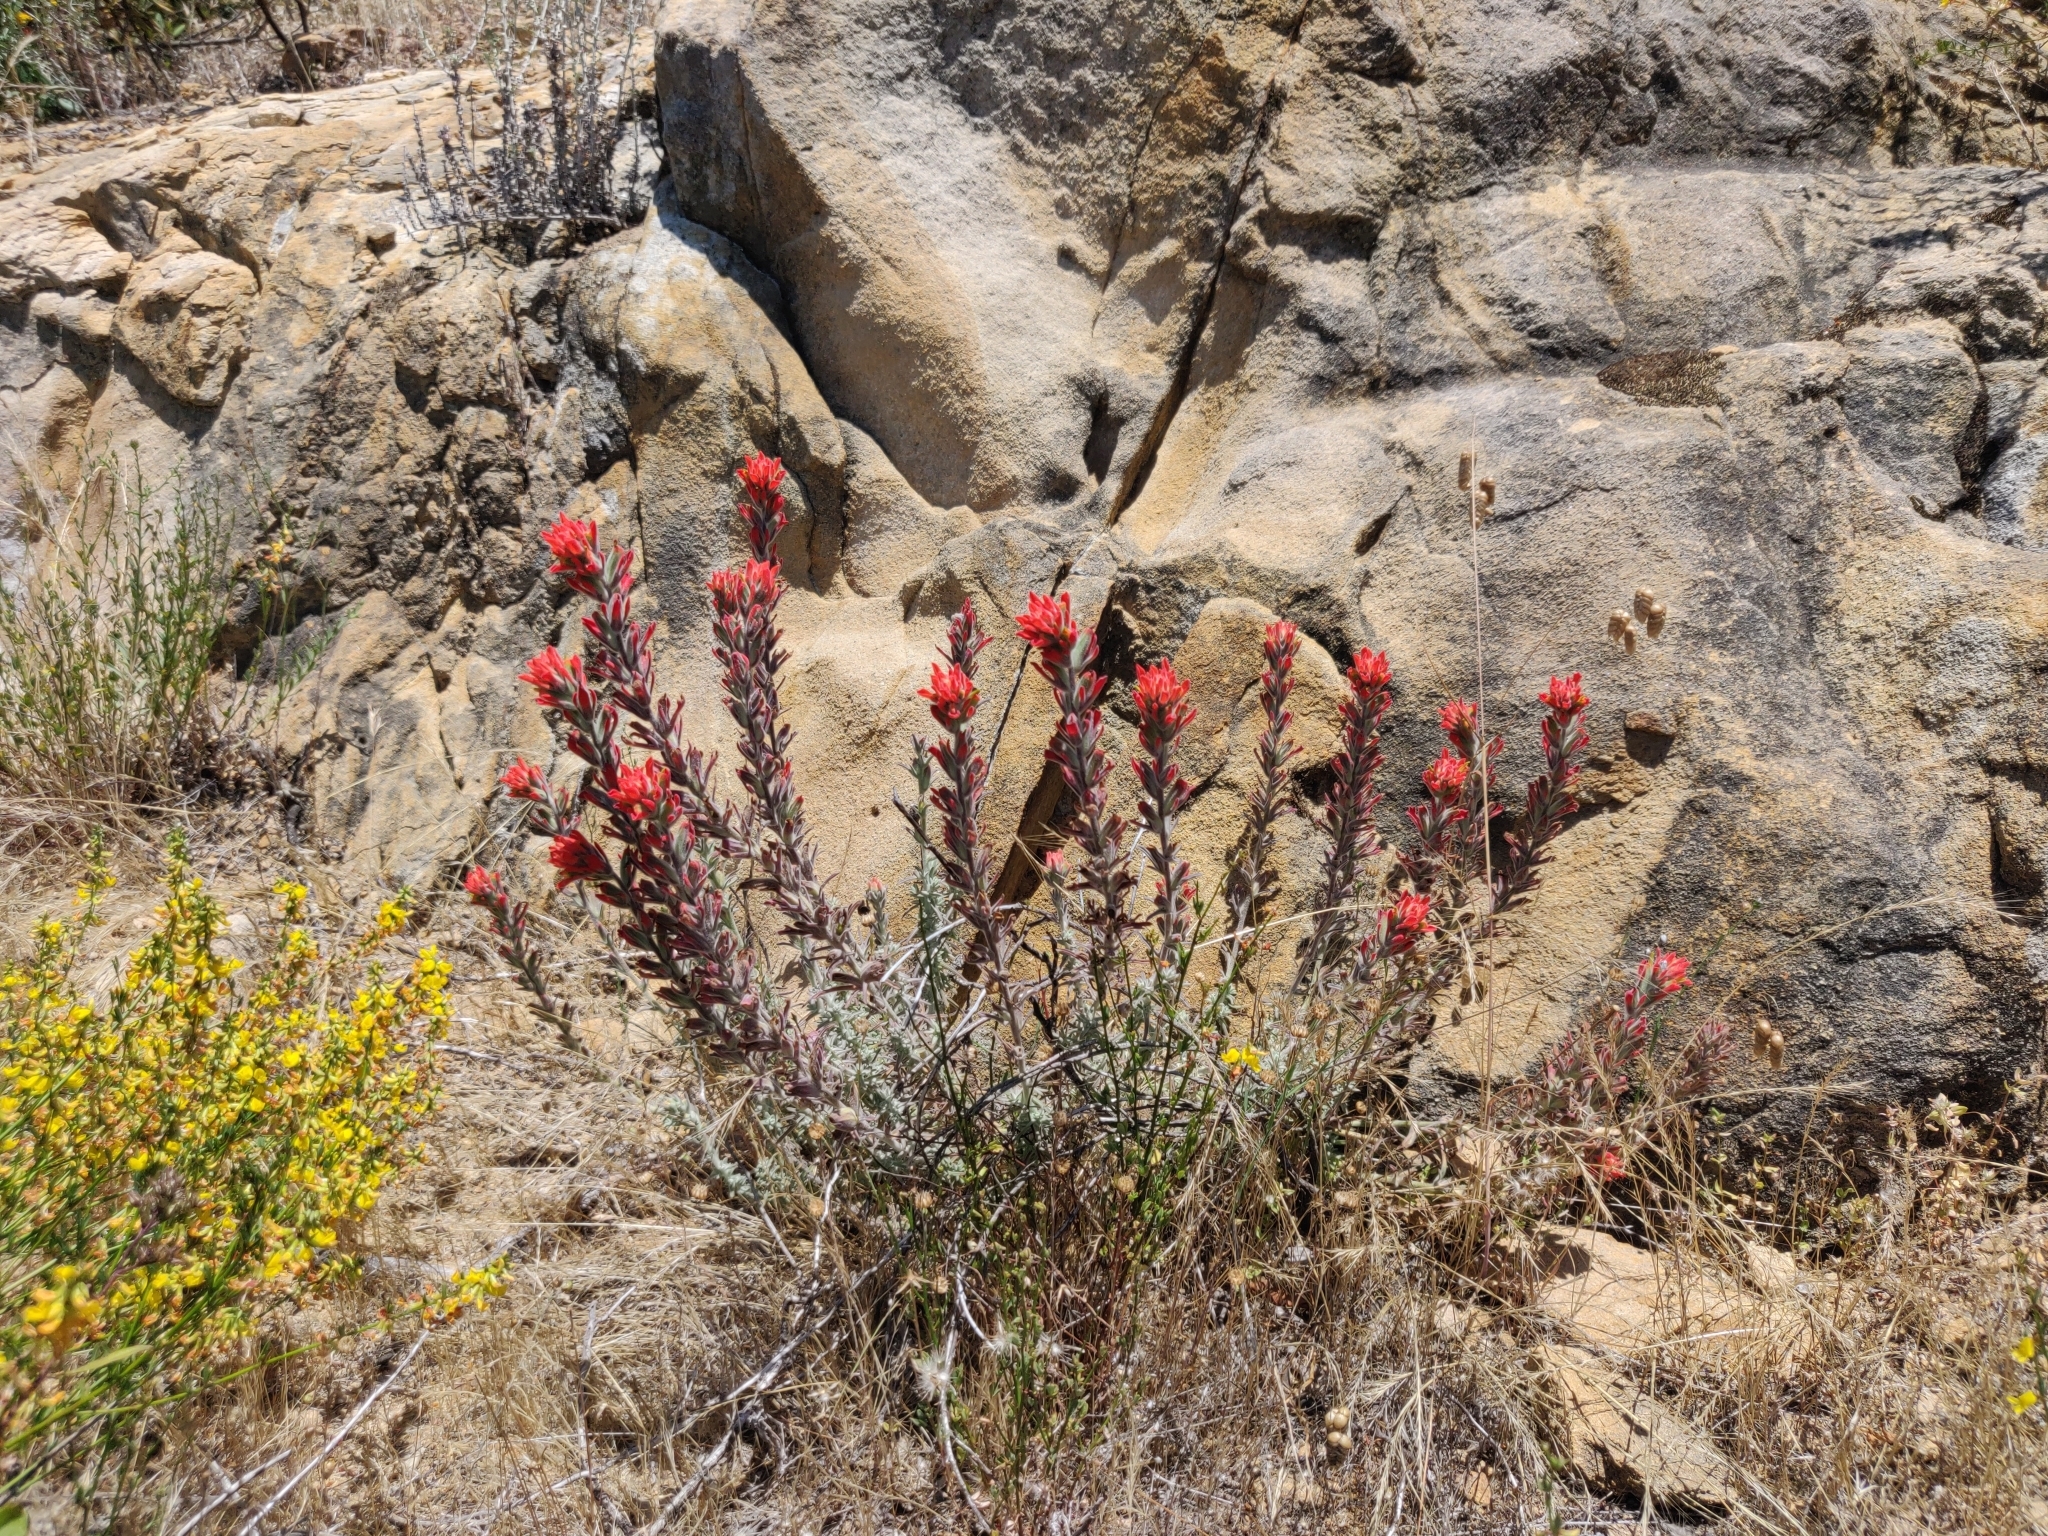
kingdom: Plantae
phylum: Tracheophyta
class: Magnoliopsida
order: Lamiales
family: Orobanchaceae
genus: Castilleja
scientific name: Castilleja foliolosa
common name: Woolly indian paintbrush
